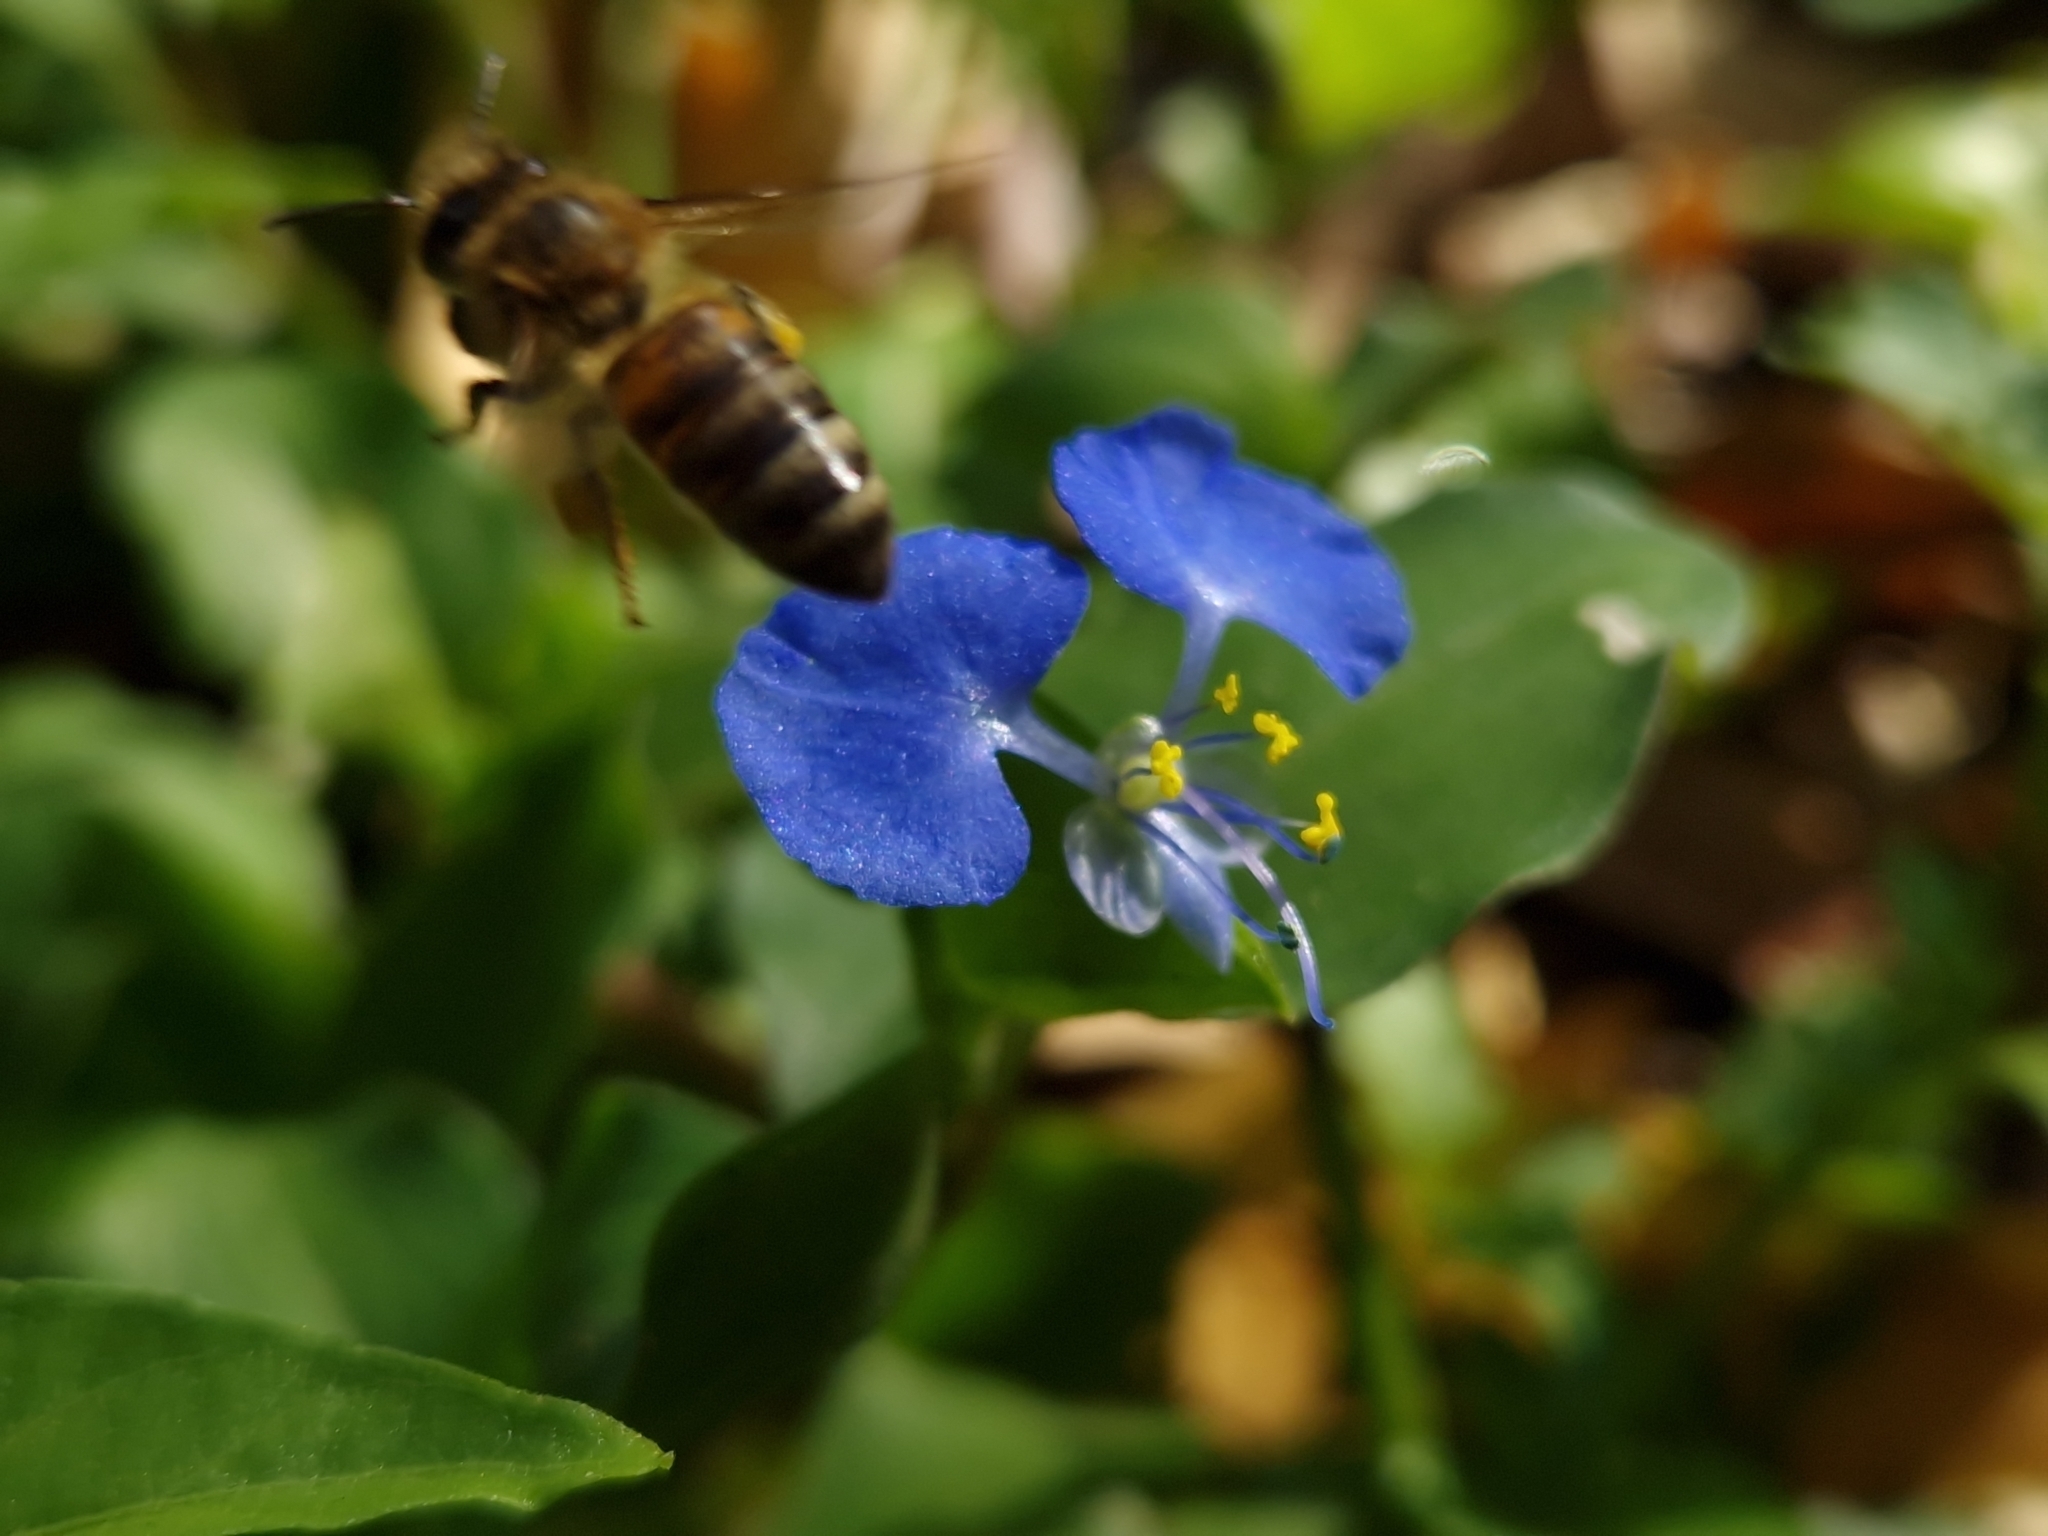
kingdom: Animalia
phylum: Arthropoda
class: Insecta
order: Hymenoptera
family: Apidae
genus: Apis
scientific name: Apis mellifera
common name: Honey bee
